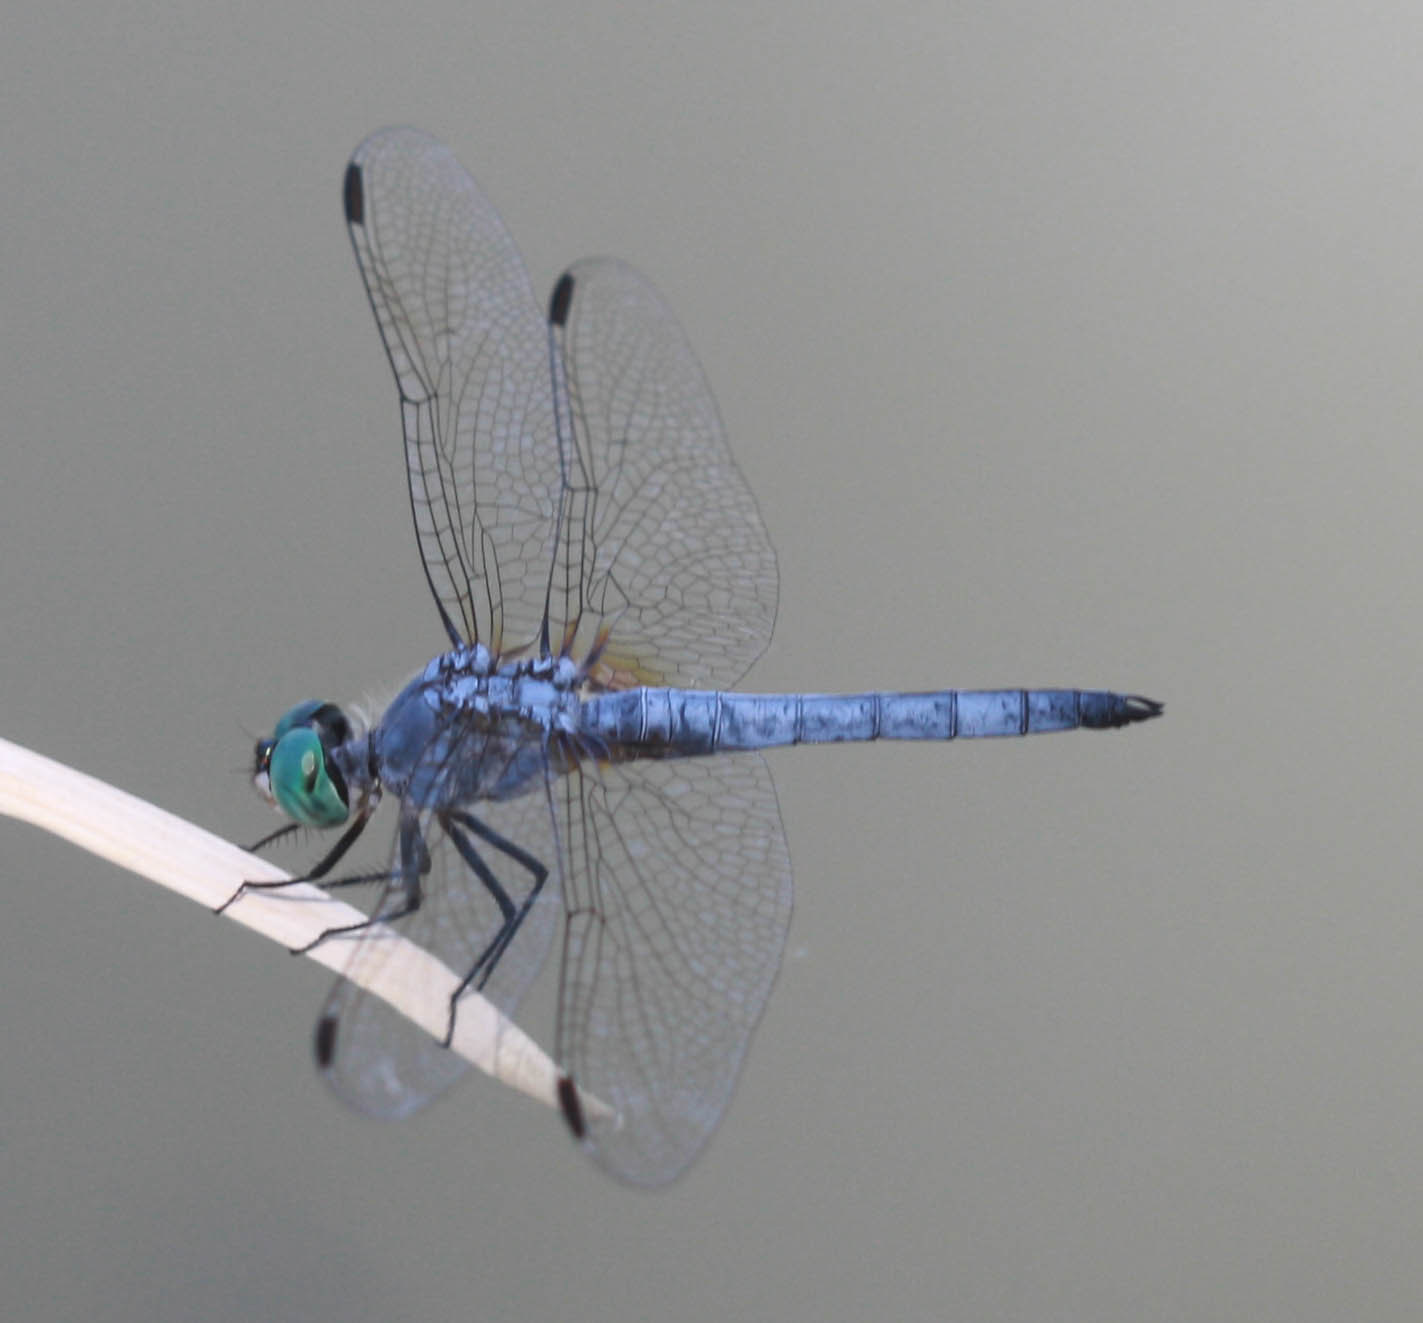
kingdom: Animalia
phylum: Arthropoda
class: Insecta
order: Odonata
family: Libellulidae
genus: Pachydiplax
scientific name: Pachydiplax longipennis
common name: Blue dasher
